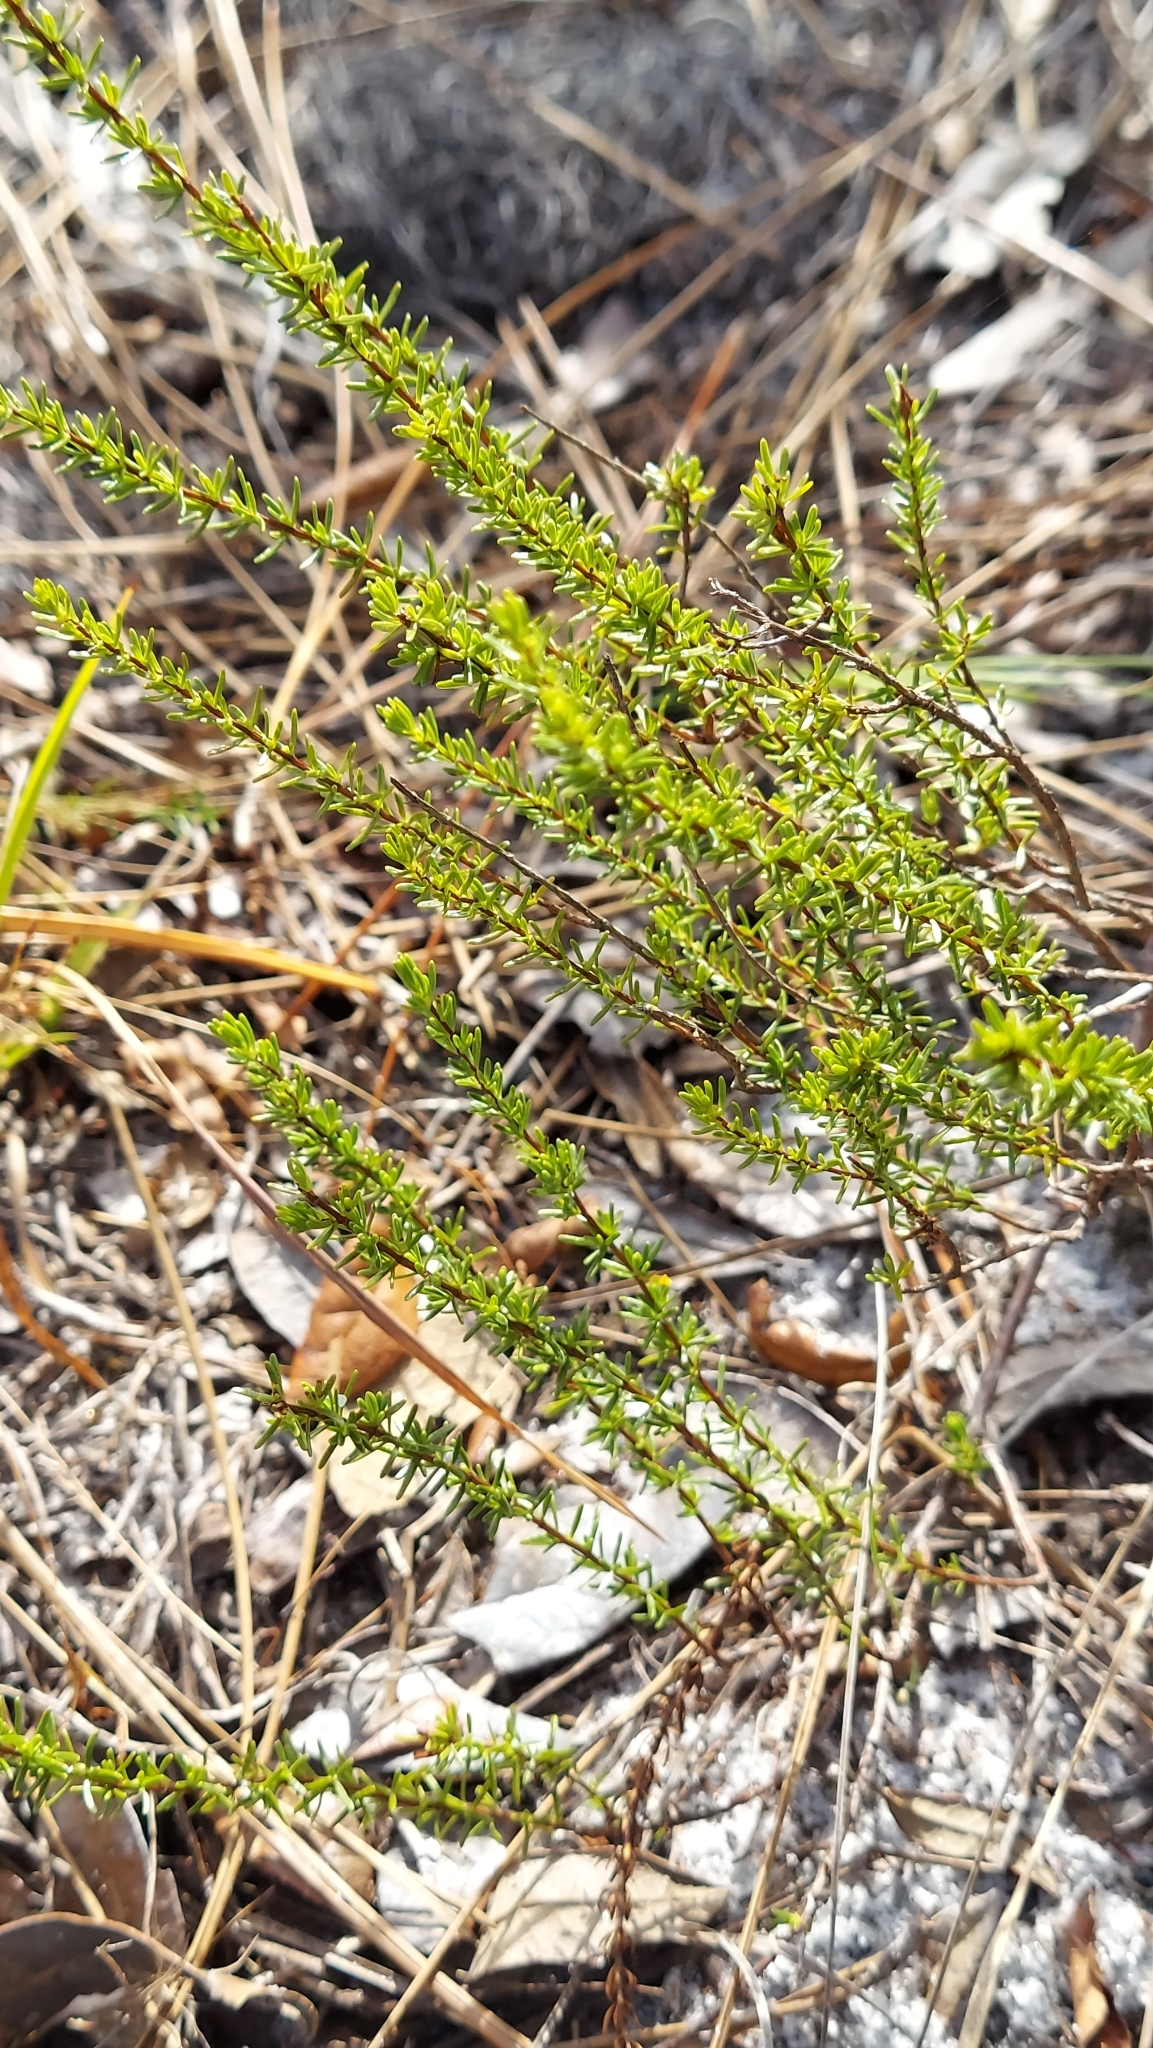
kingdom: Plantae
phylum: Tracheophyta
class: Magnoliopsida
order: Malpighiales
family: Hypericaceae
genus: Hypericum
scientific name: Hypericum tenuifolium
